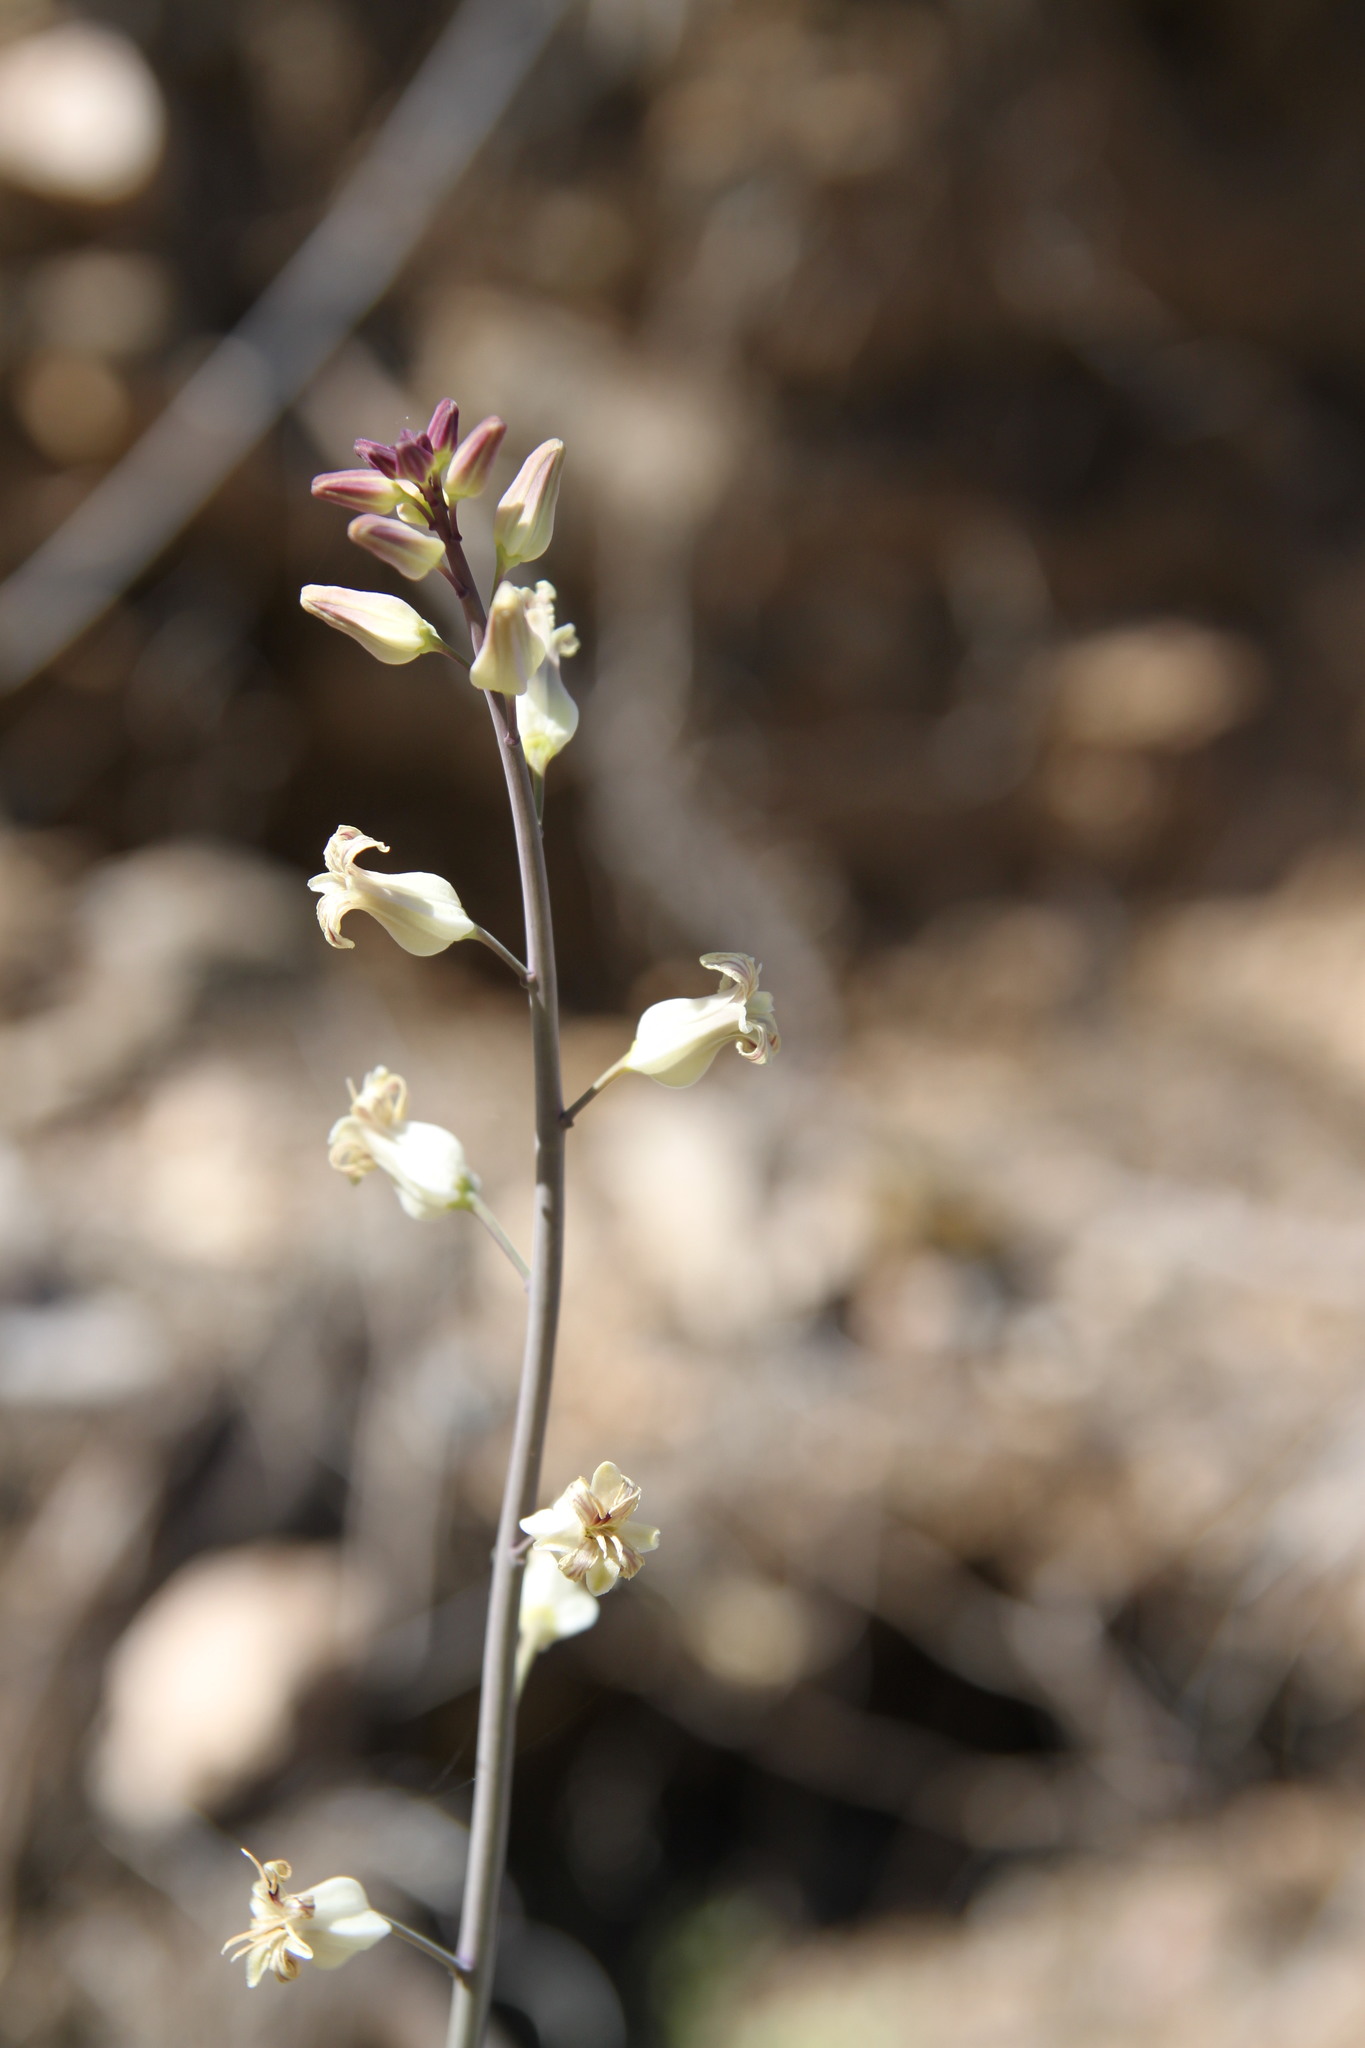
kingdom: Plantae
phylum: Tracheophyta
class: Magnoliopsida
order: Brassicales
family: Brassicaceae
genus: Streptanthus
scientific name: Streptanthus carinatus
